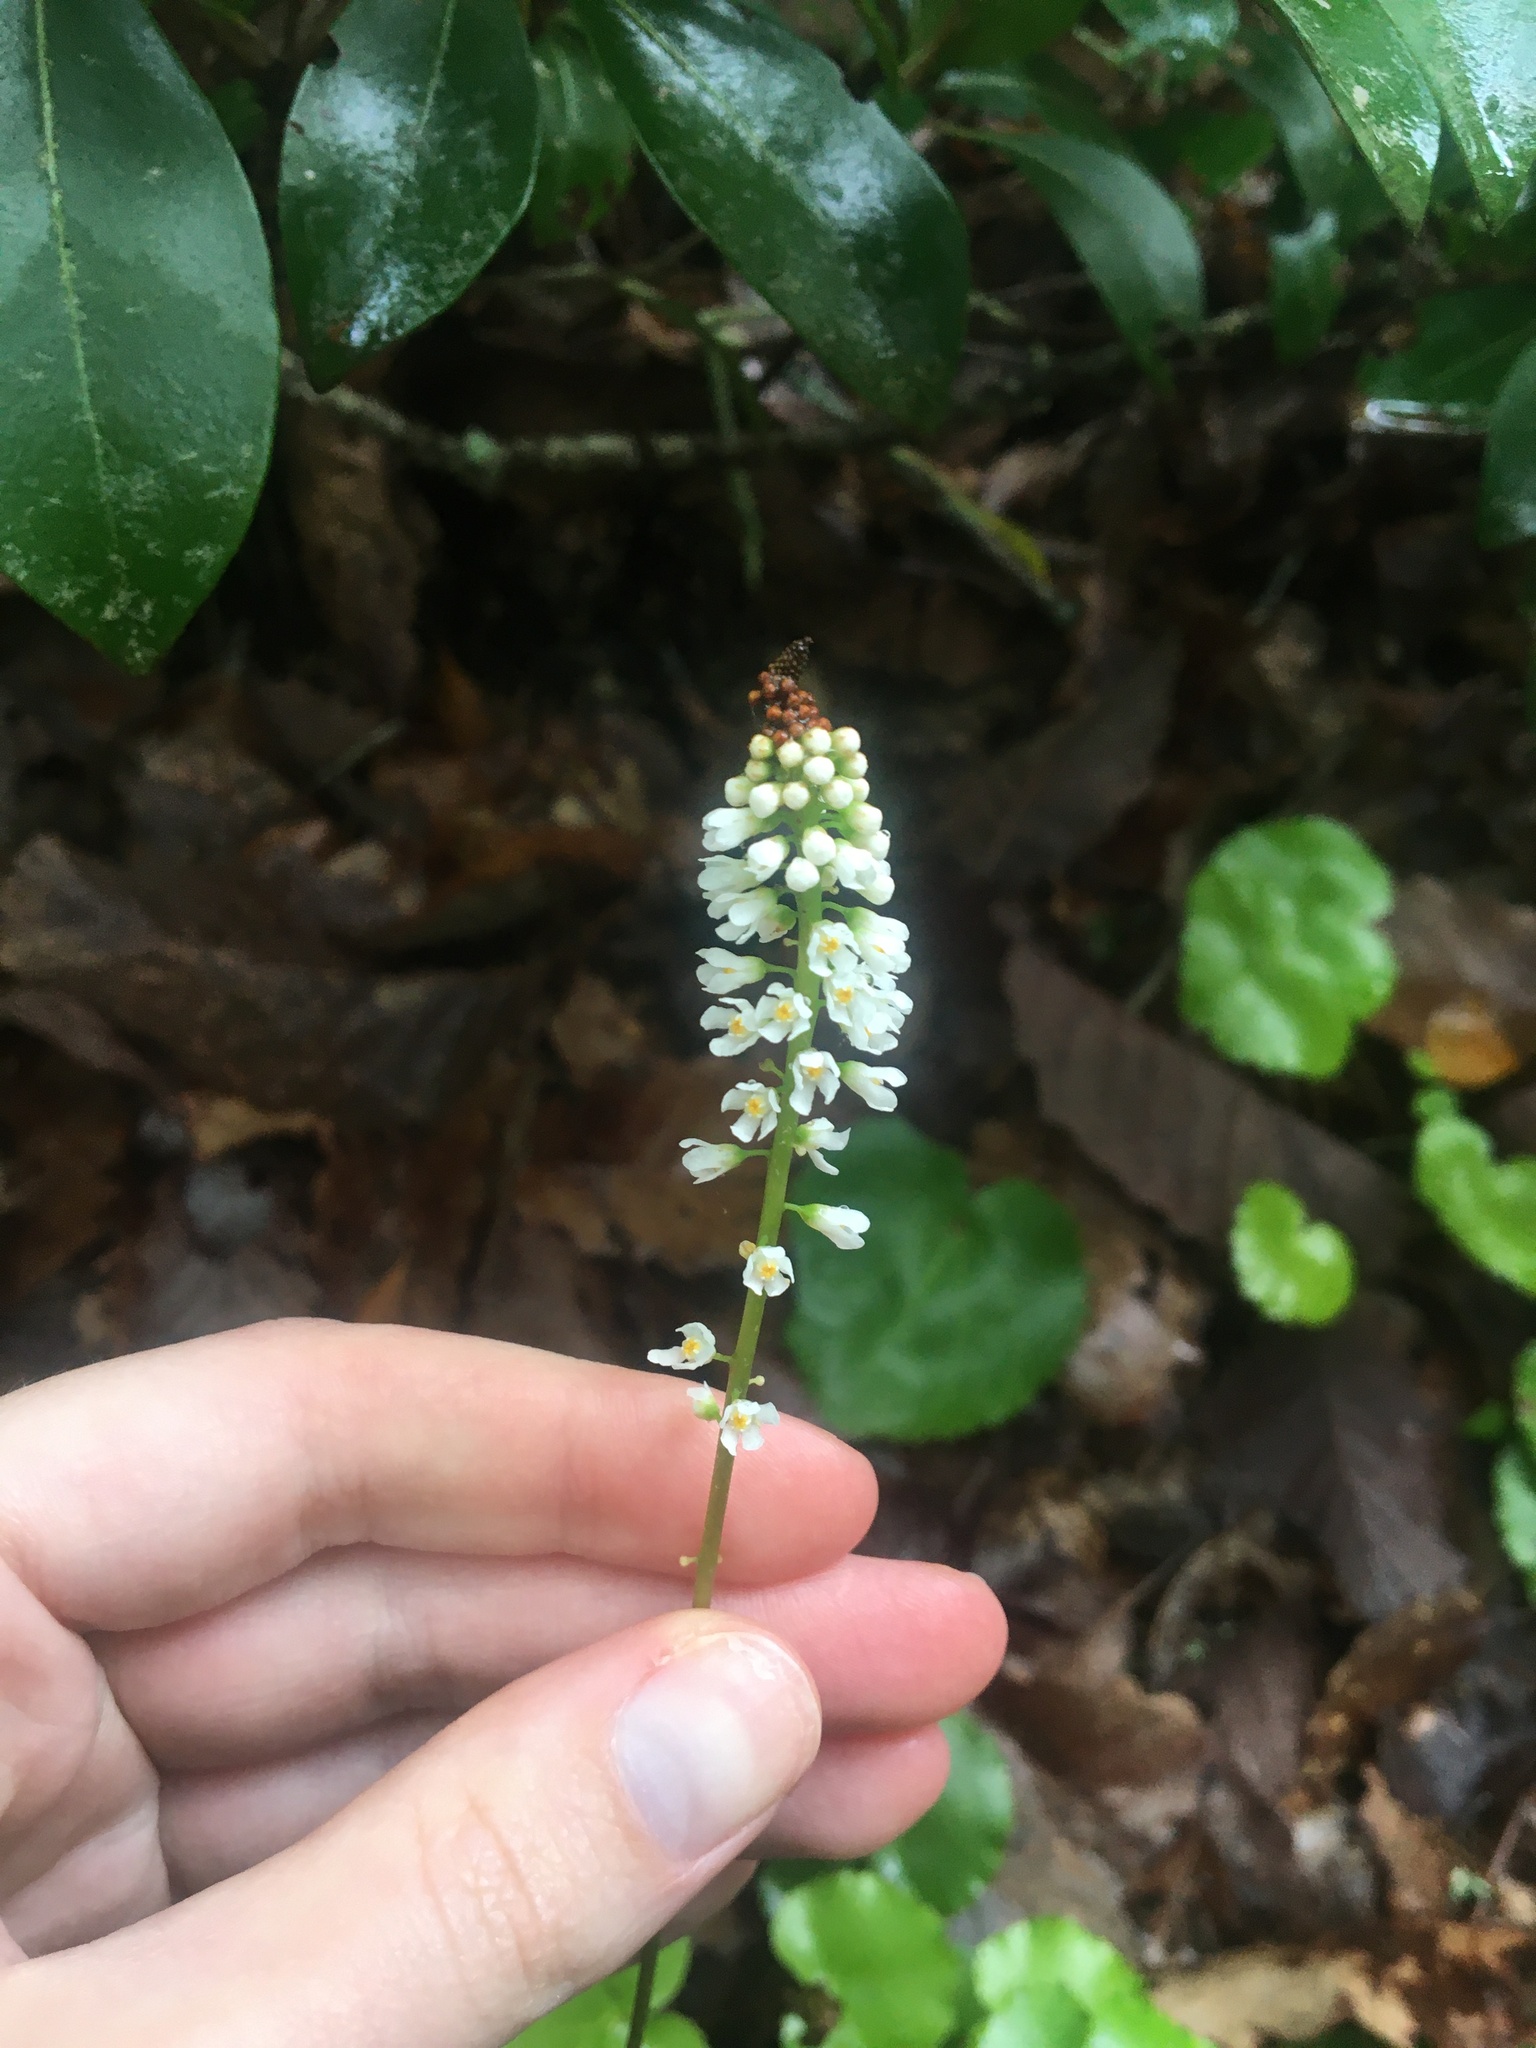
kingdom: Plantae
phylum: Tracheophyta
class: Magnoliopsida
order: Ericales
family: Diapensiaceae
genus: Galax
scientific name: Galax urceolata
